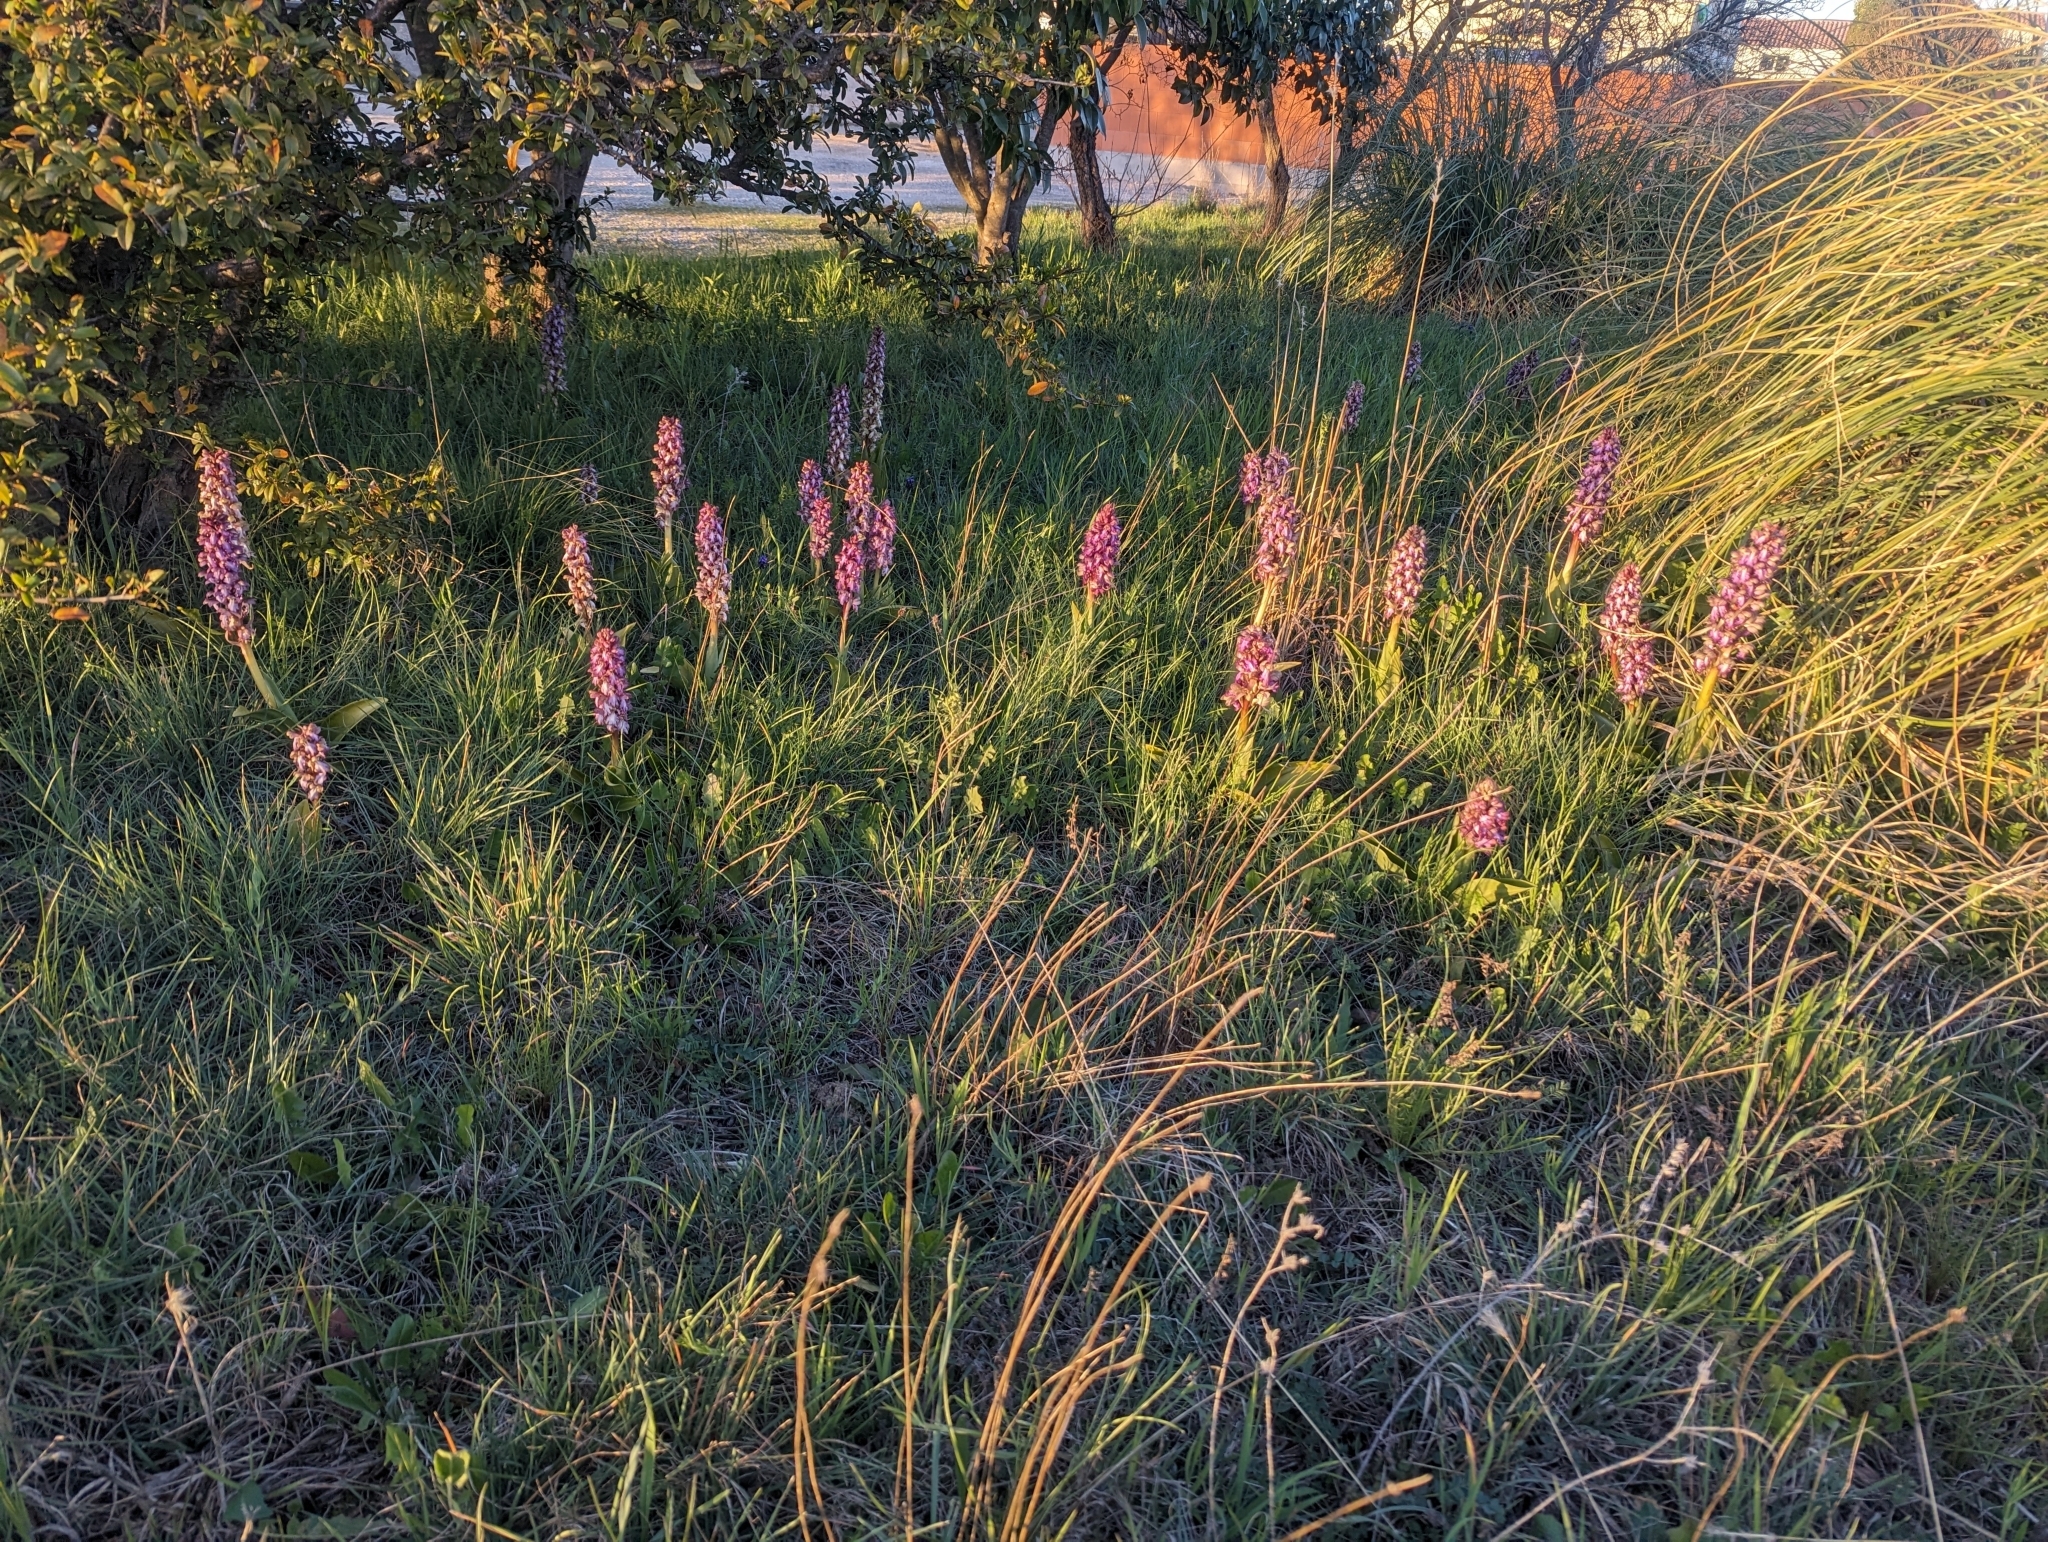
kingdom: Plantae
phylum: Tracheophyta
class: Liliopsida
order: Asparagales
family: Orchidaceae
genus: Himantoglossum
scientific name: Himantoglossum robertianum
